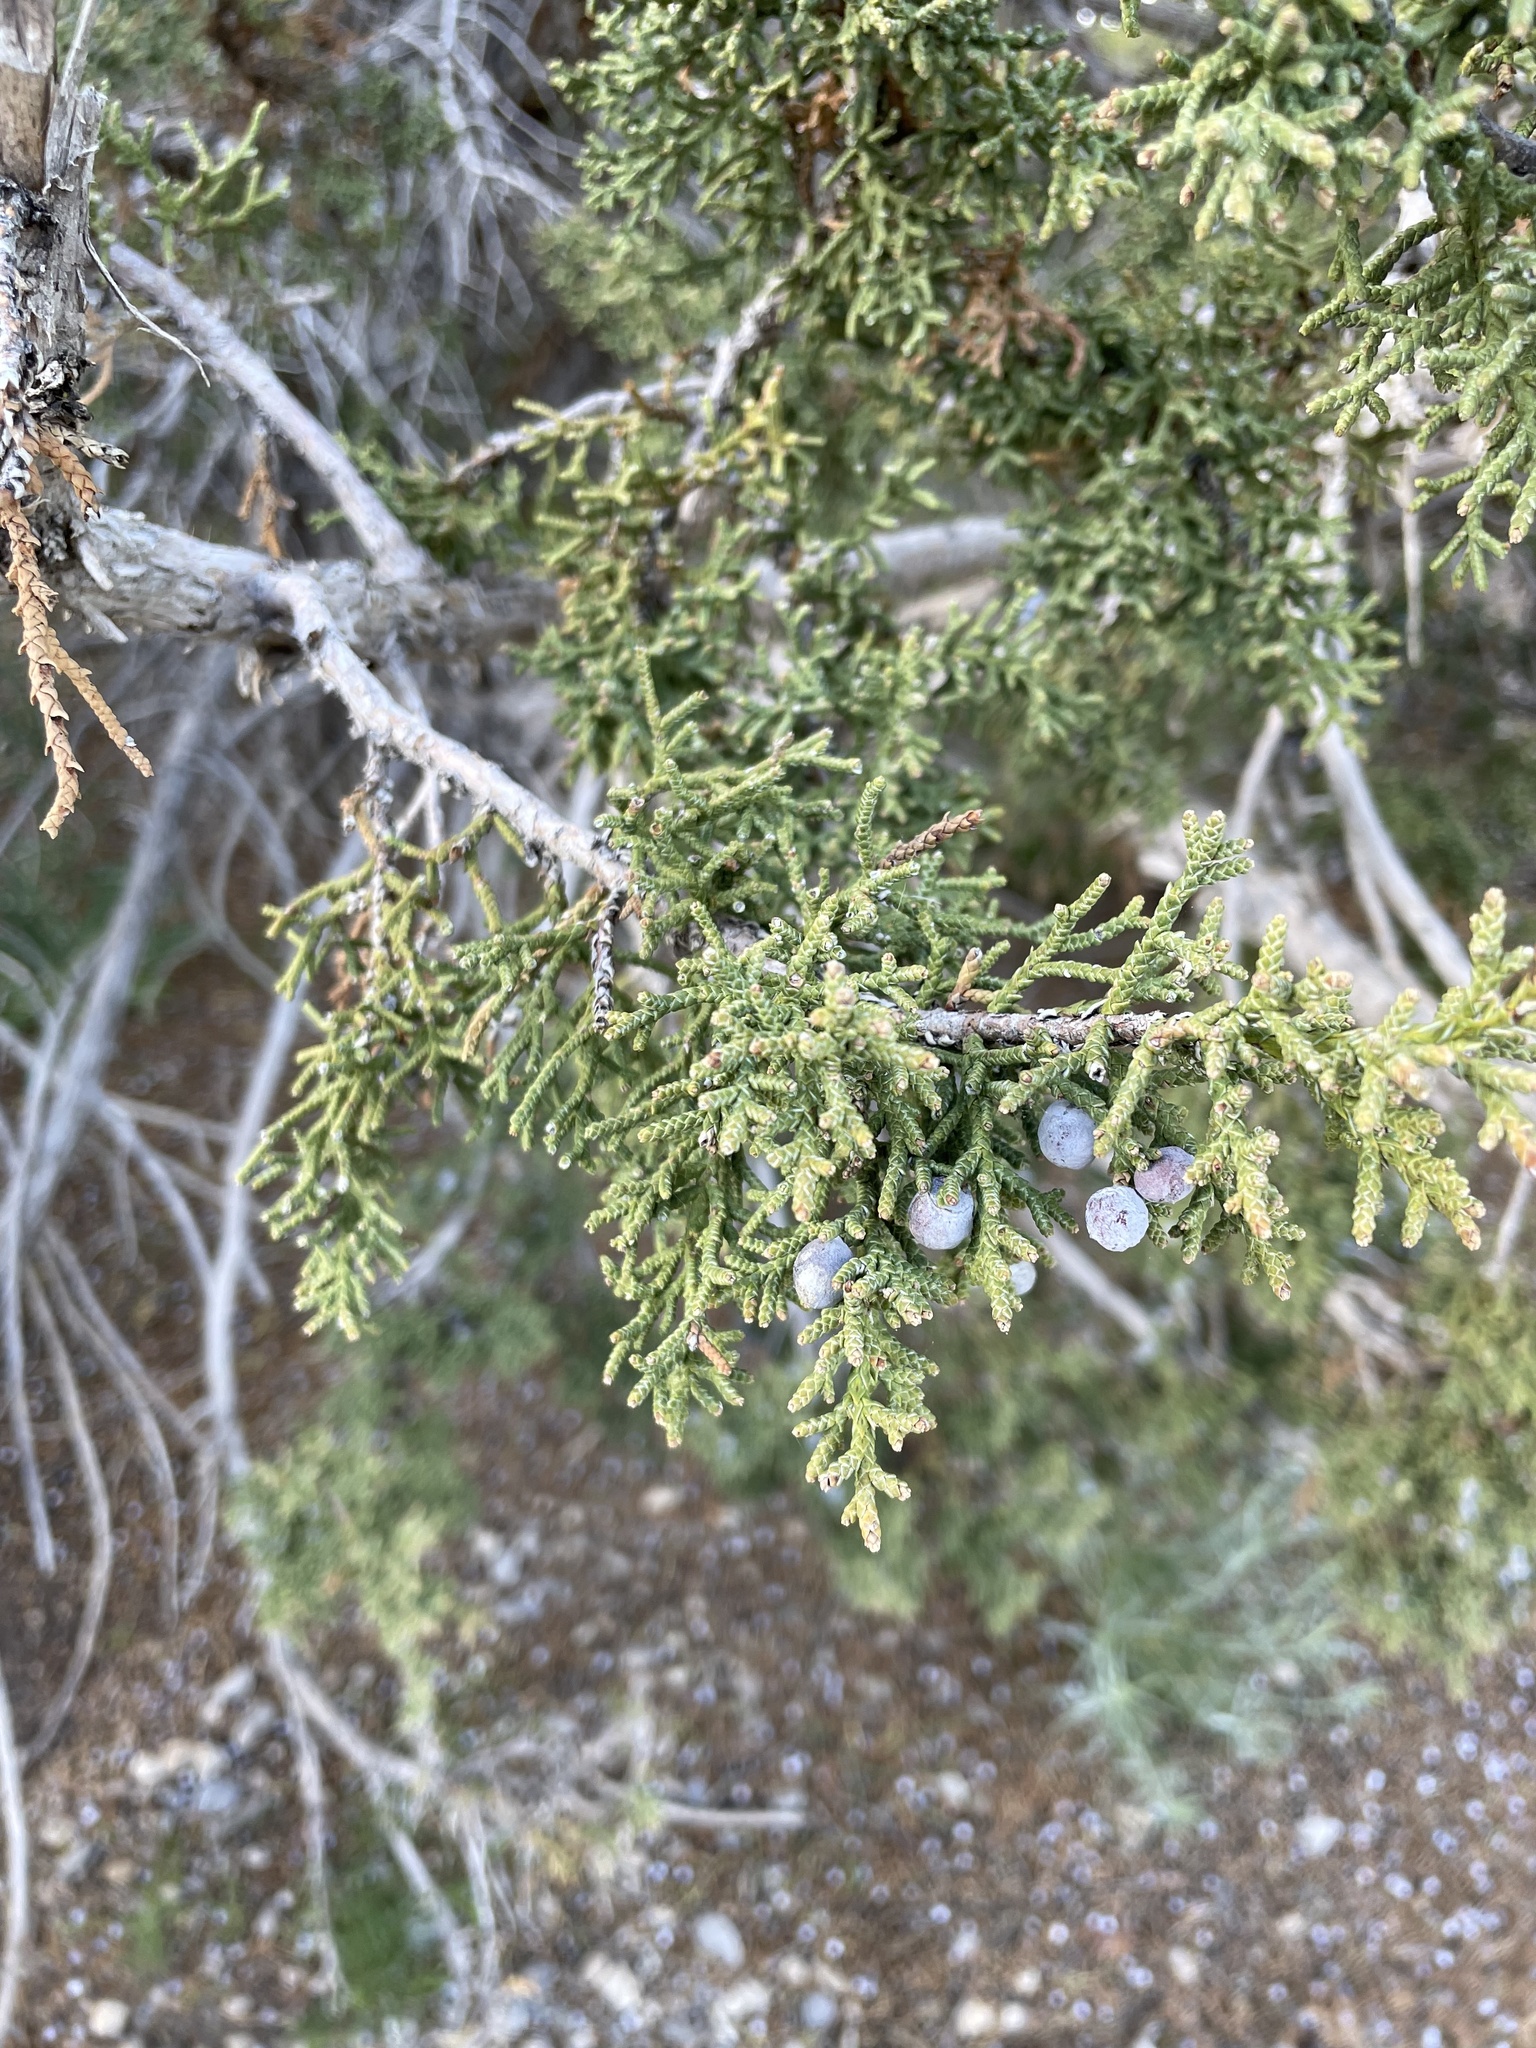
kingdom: Plantae
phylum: Tracheophyta
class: Pinopsida
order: Pinales
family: Cupressaceae
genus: Juniperus
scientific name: Juniperus osteosperma
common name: Utah juniper
